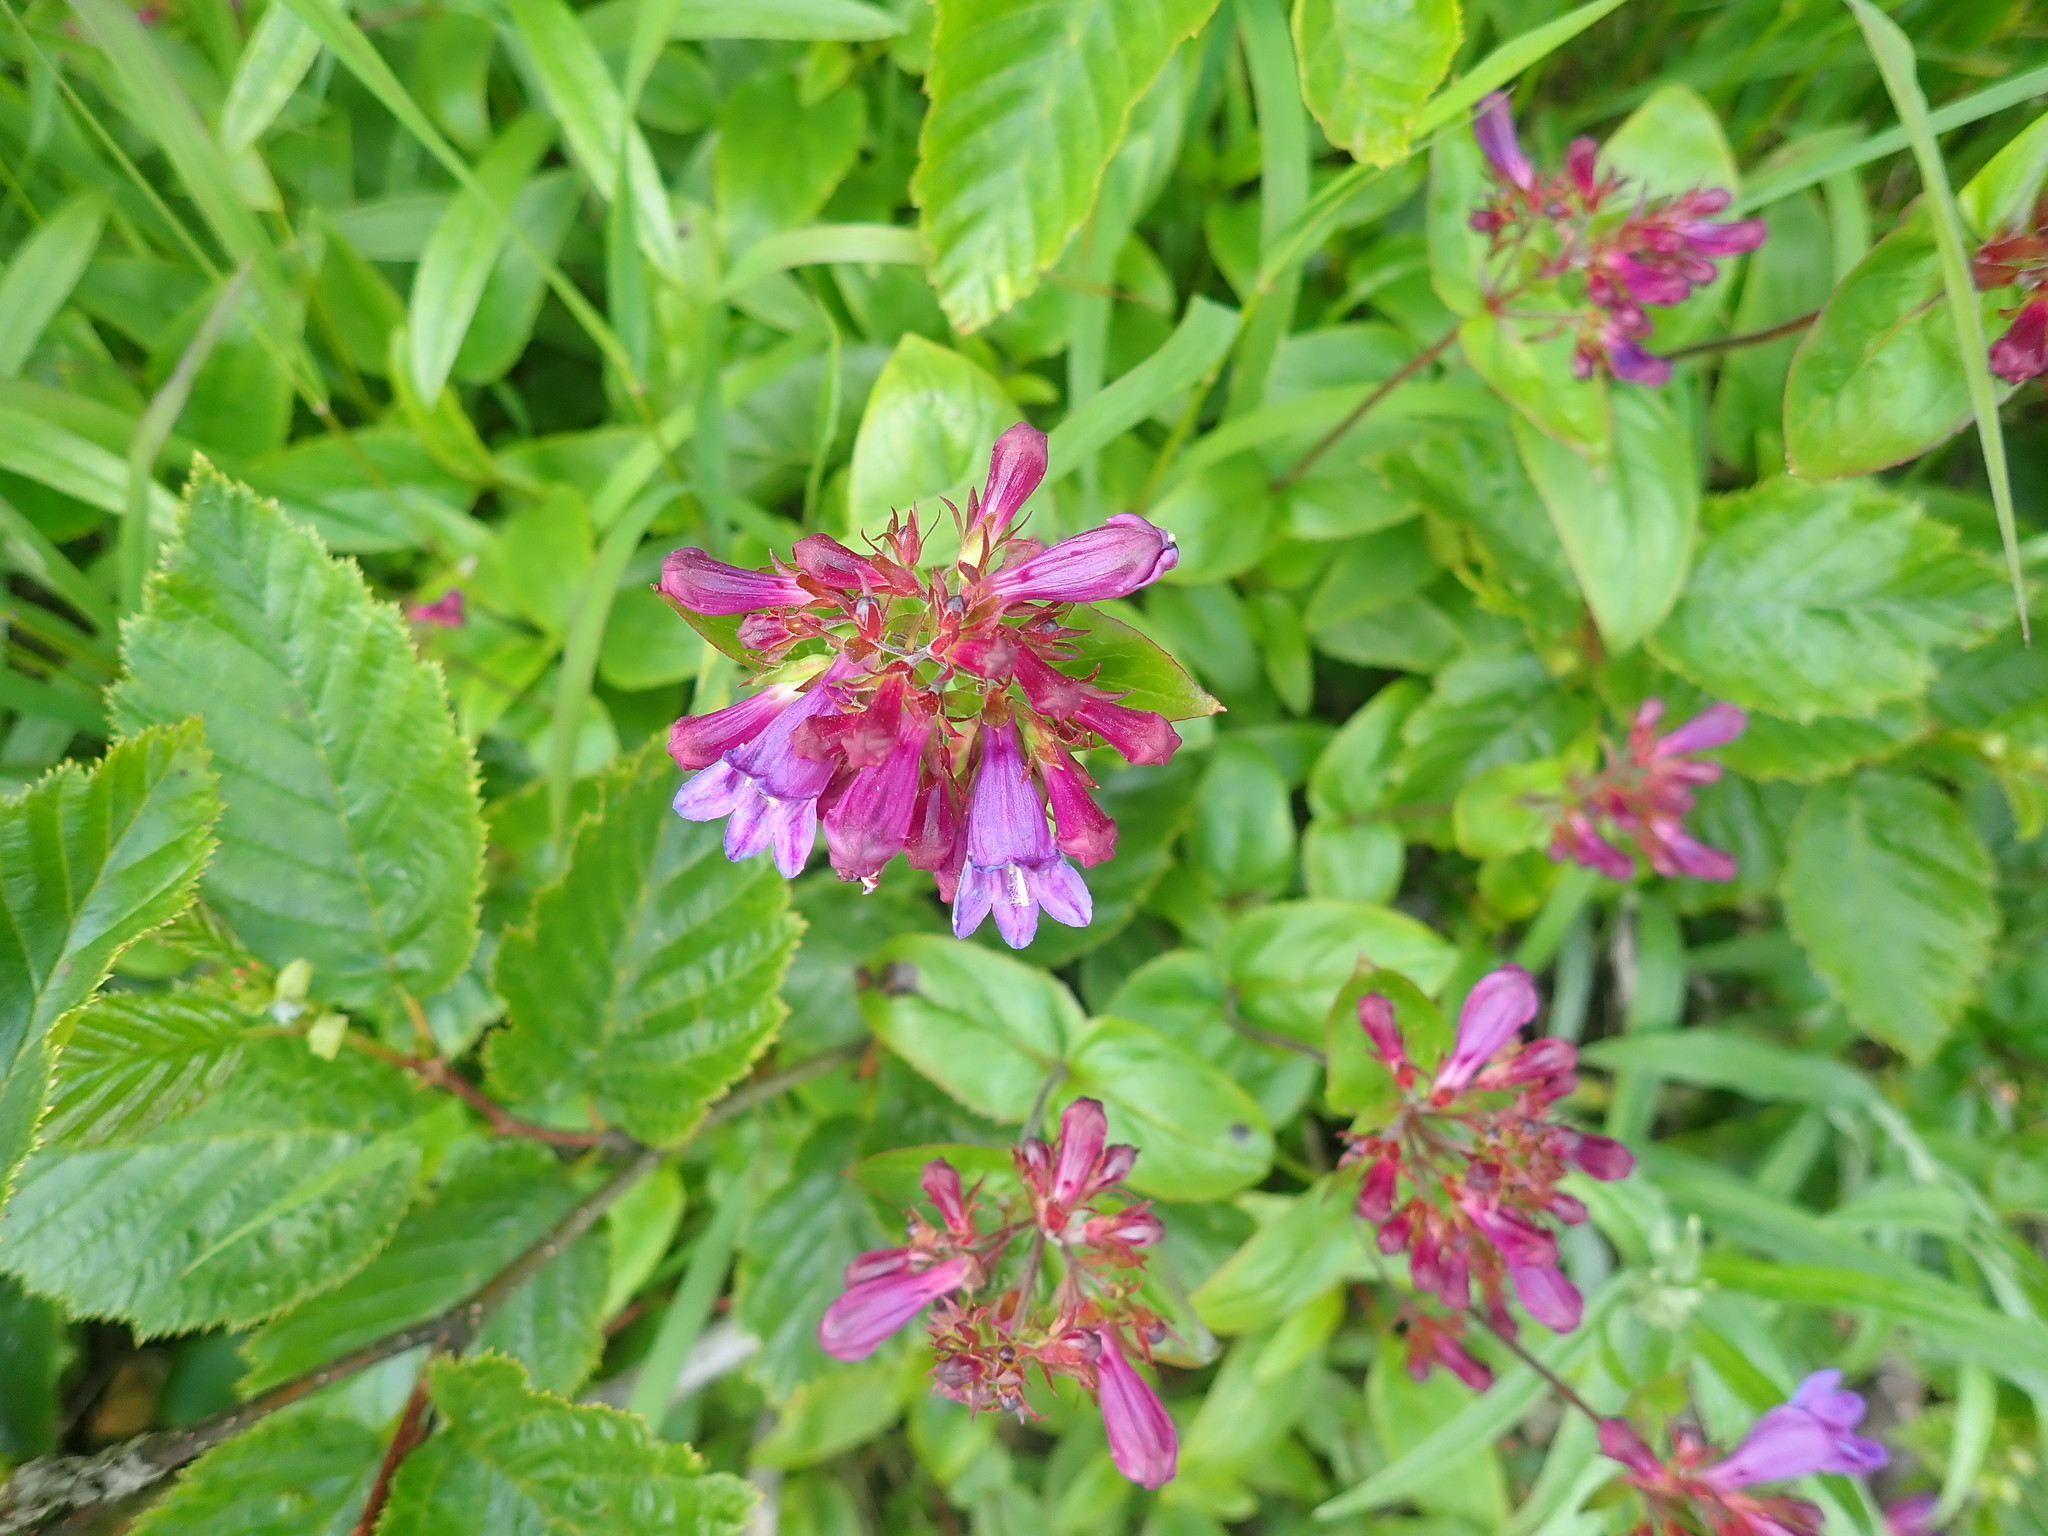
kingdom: Plantae
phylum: Tracheophyta
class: Magnoliopsida
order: Lamiales
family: Plantaginaceae
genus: Penstemon
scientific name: Penstemon serrulatus
